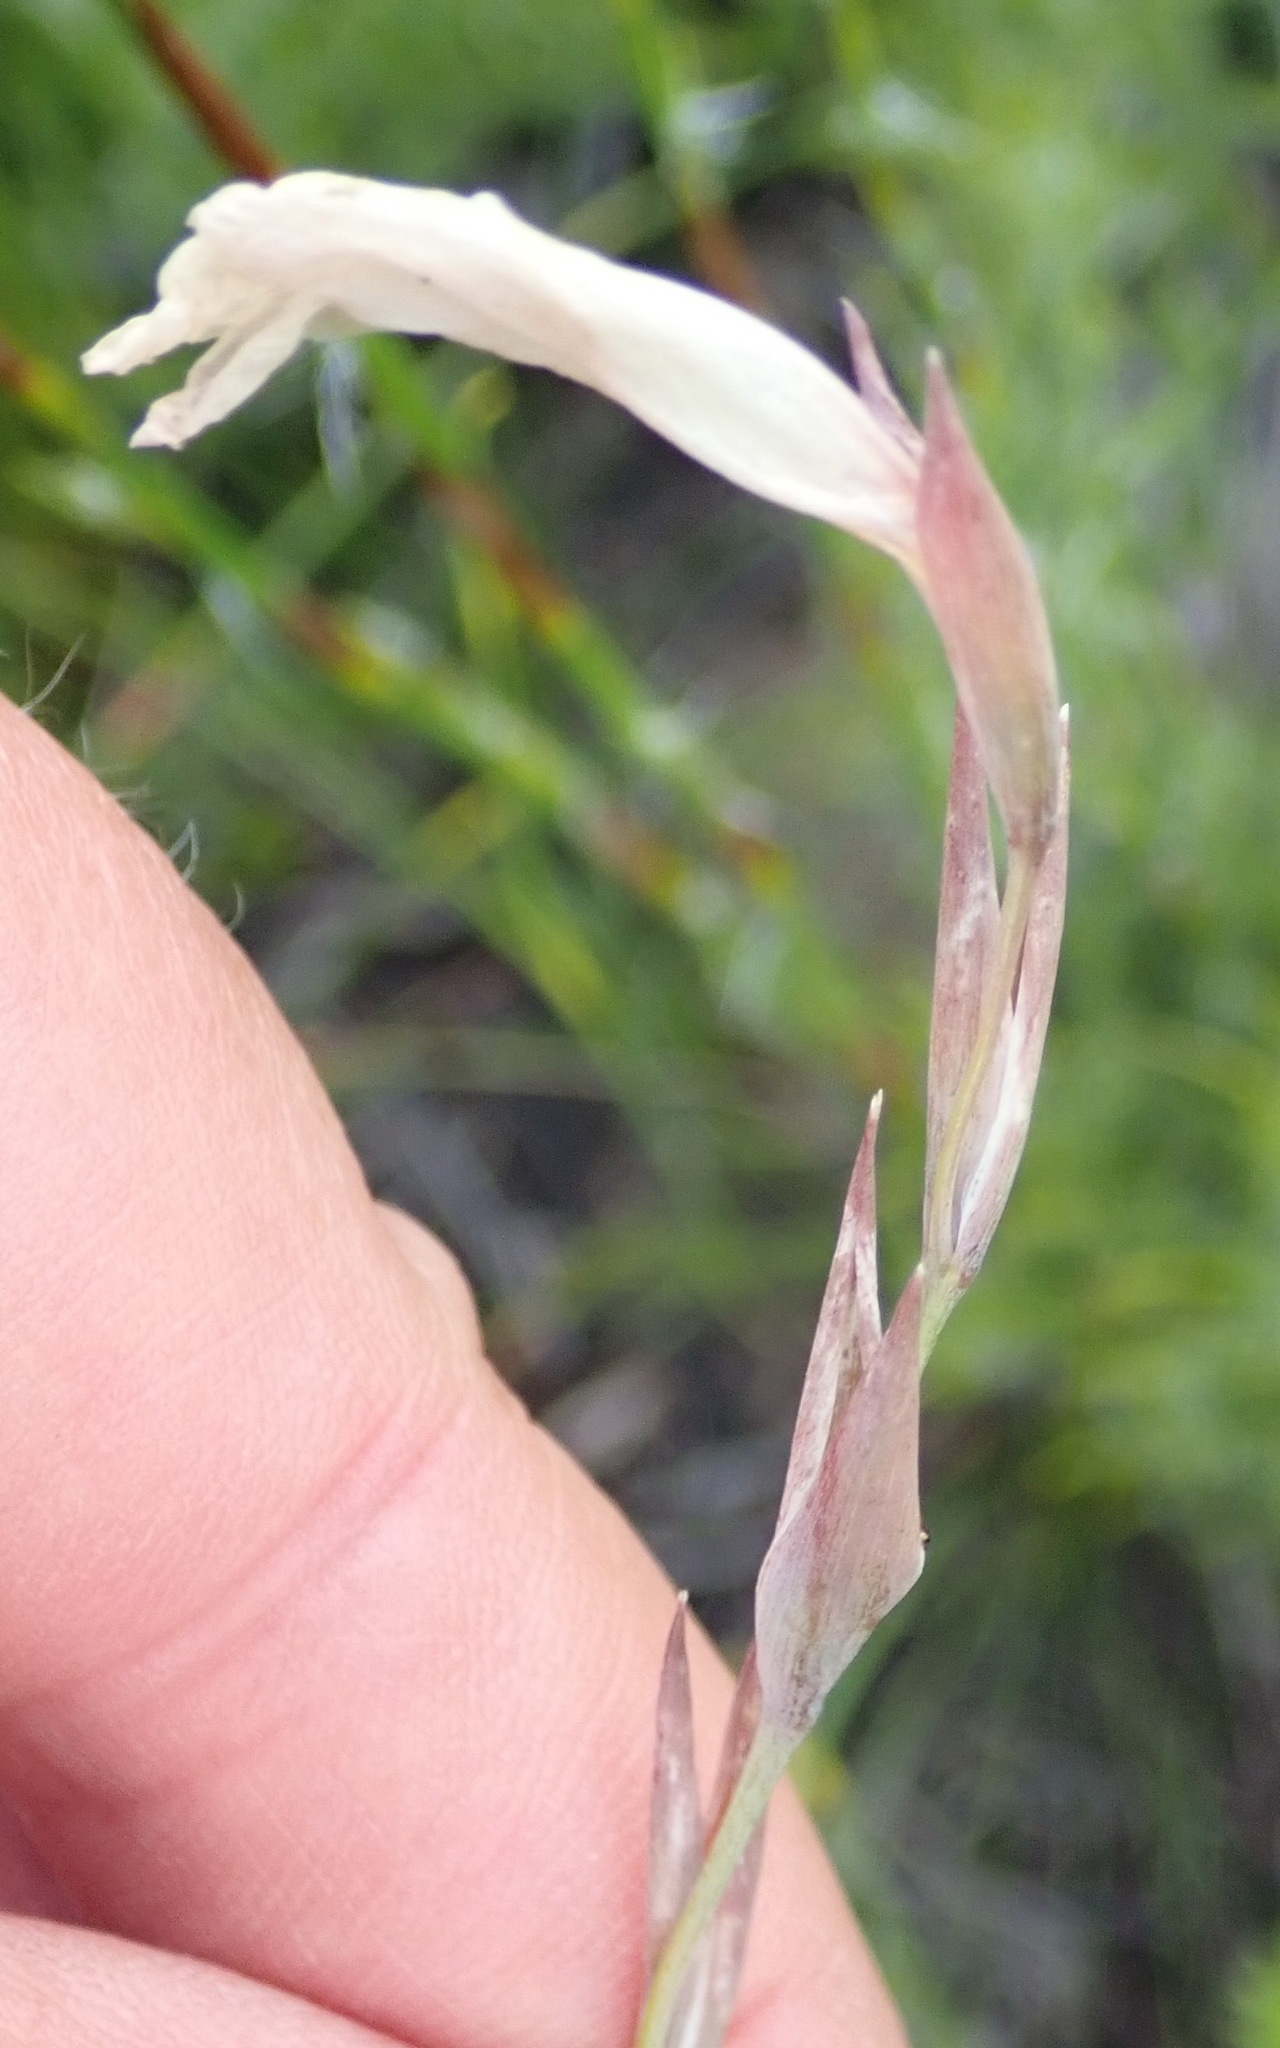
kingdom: Plantae
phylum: Tracheophyta
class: Liliopsida
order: Asparagales
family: Iridaceae
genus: Gladiolus
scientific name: Gladiolus vaginatus
